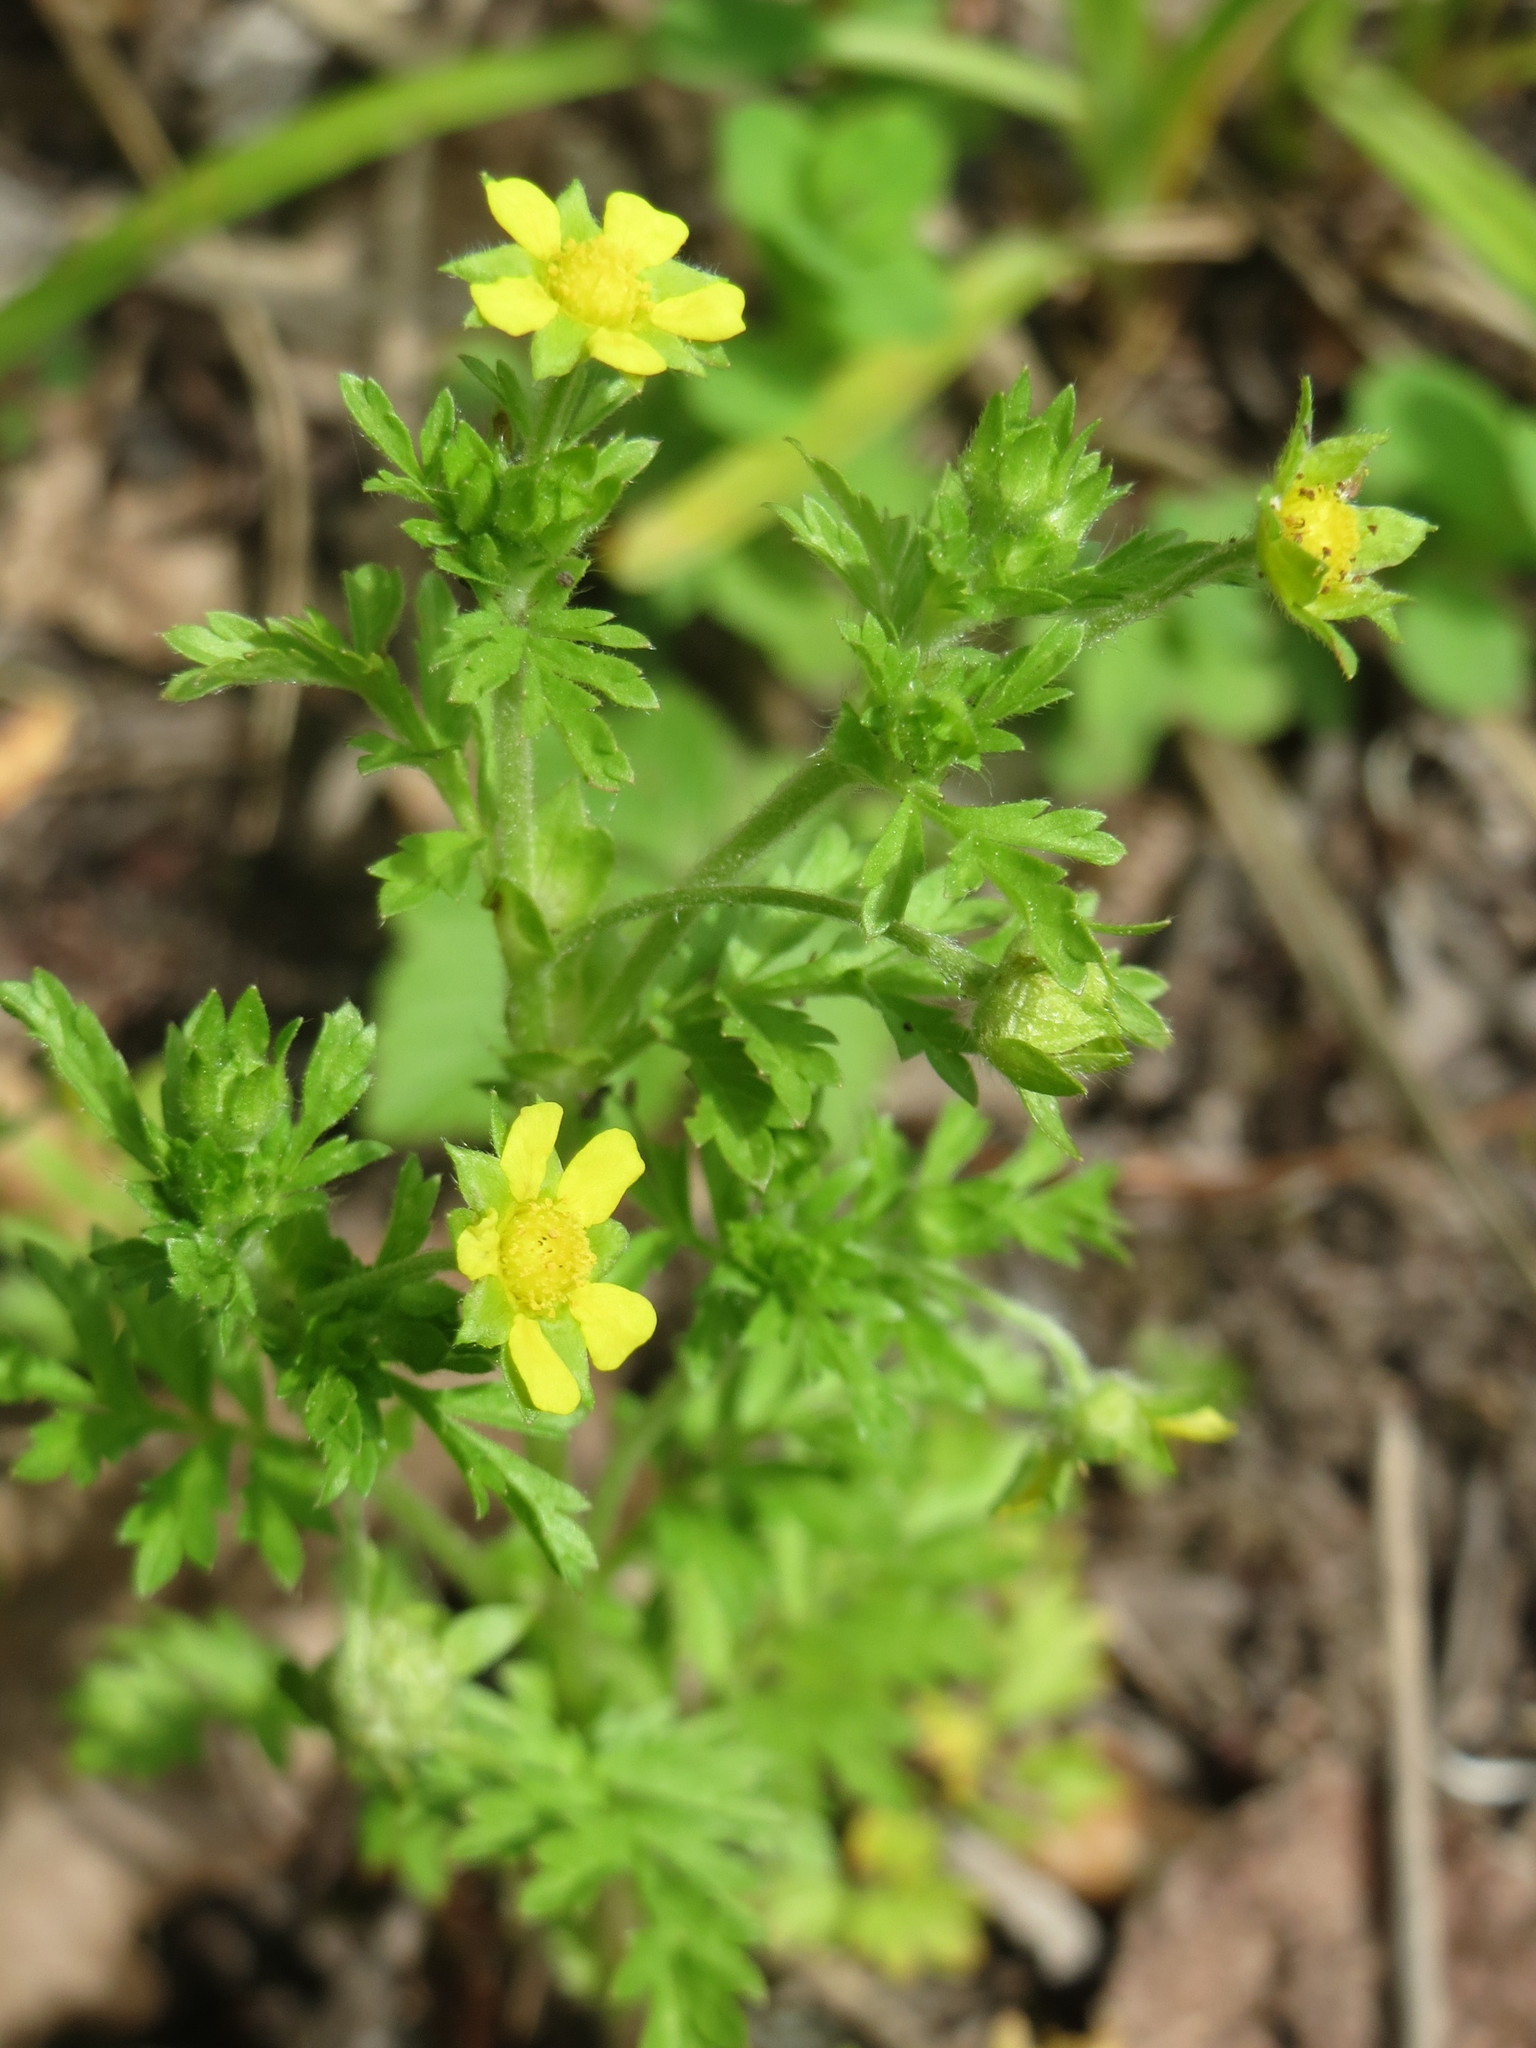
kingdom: Plantae
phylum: Tracheophyta
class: Magnoliopsida
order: Rosales
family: Rosaceae
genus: Potentilla
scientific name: Potentilla supina
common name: Prostrate cinquefoil
